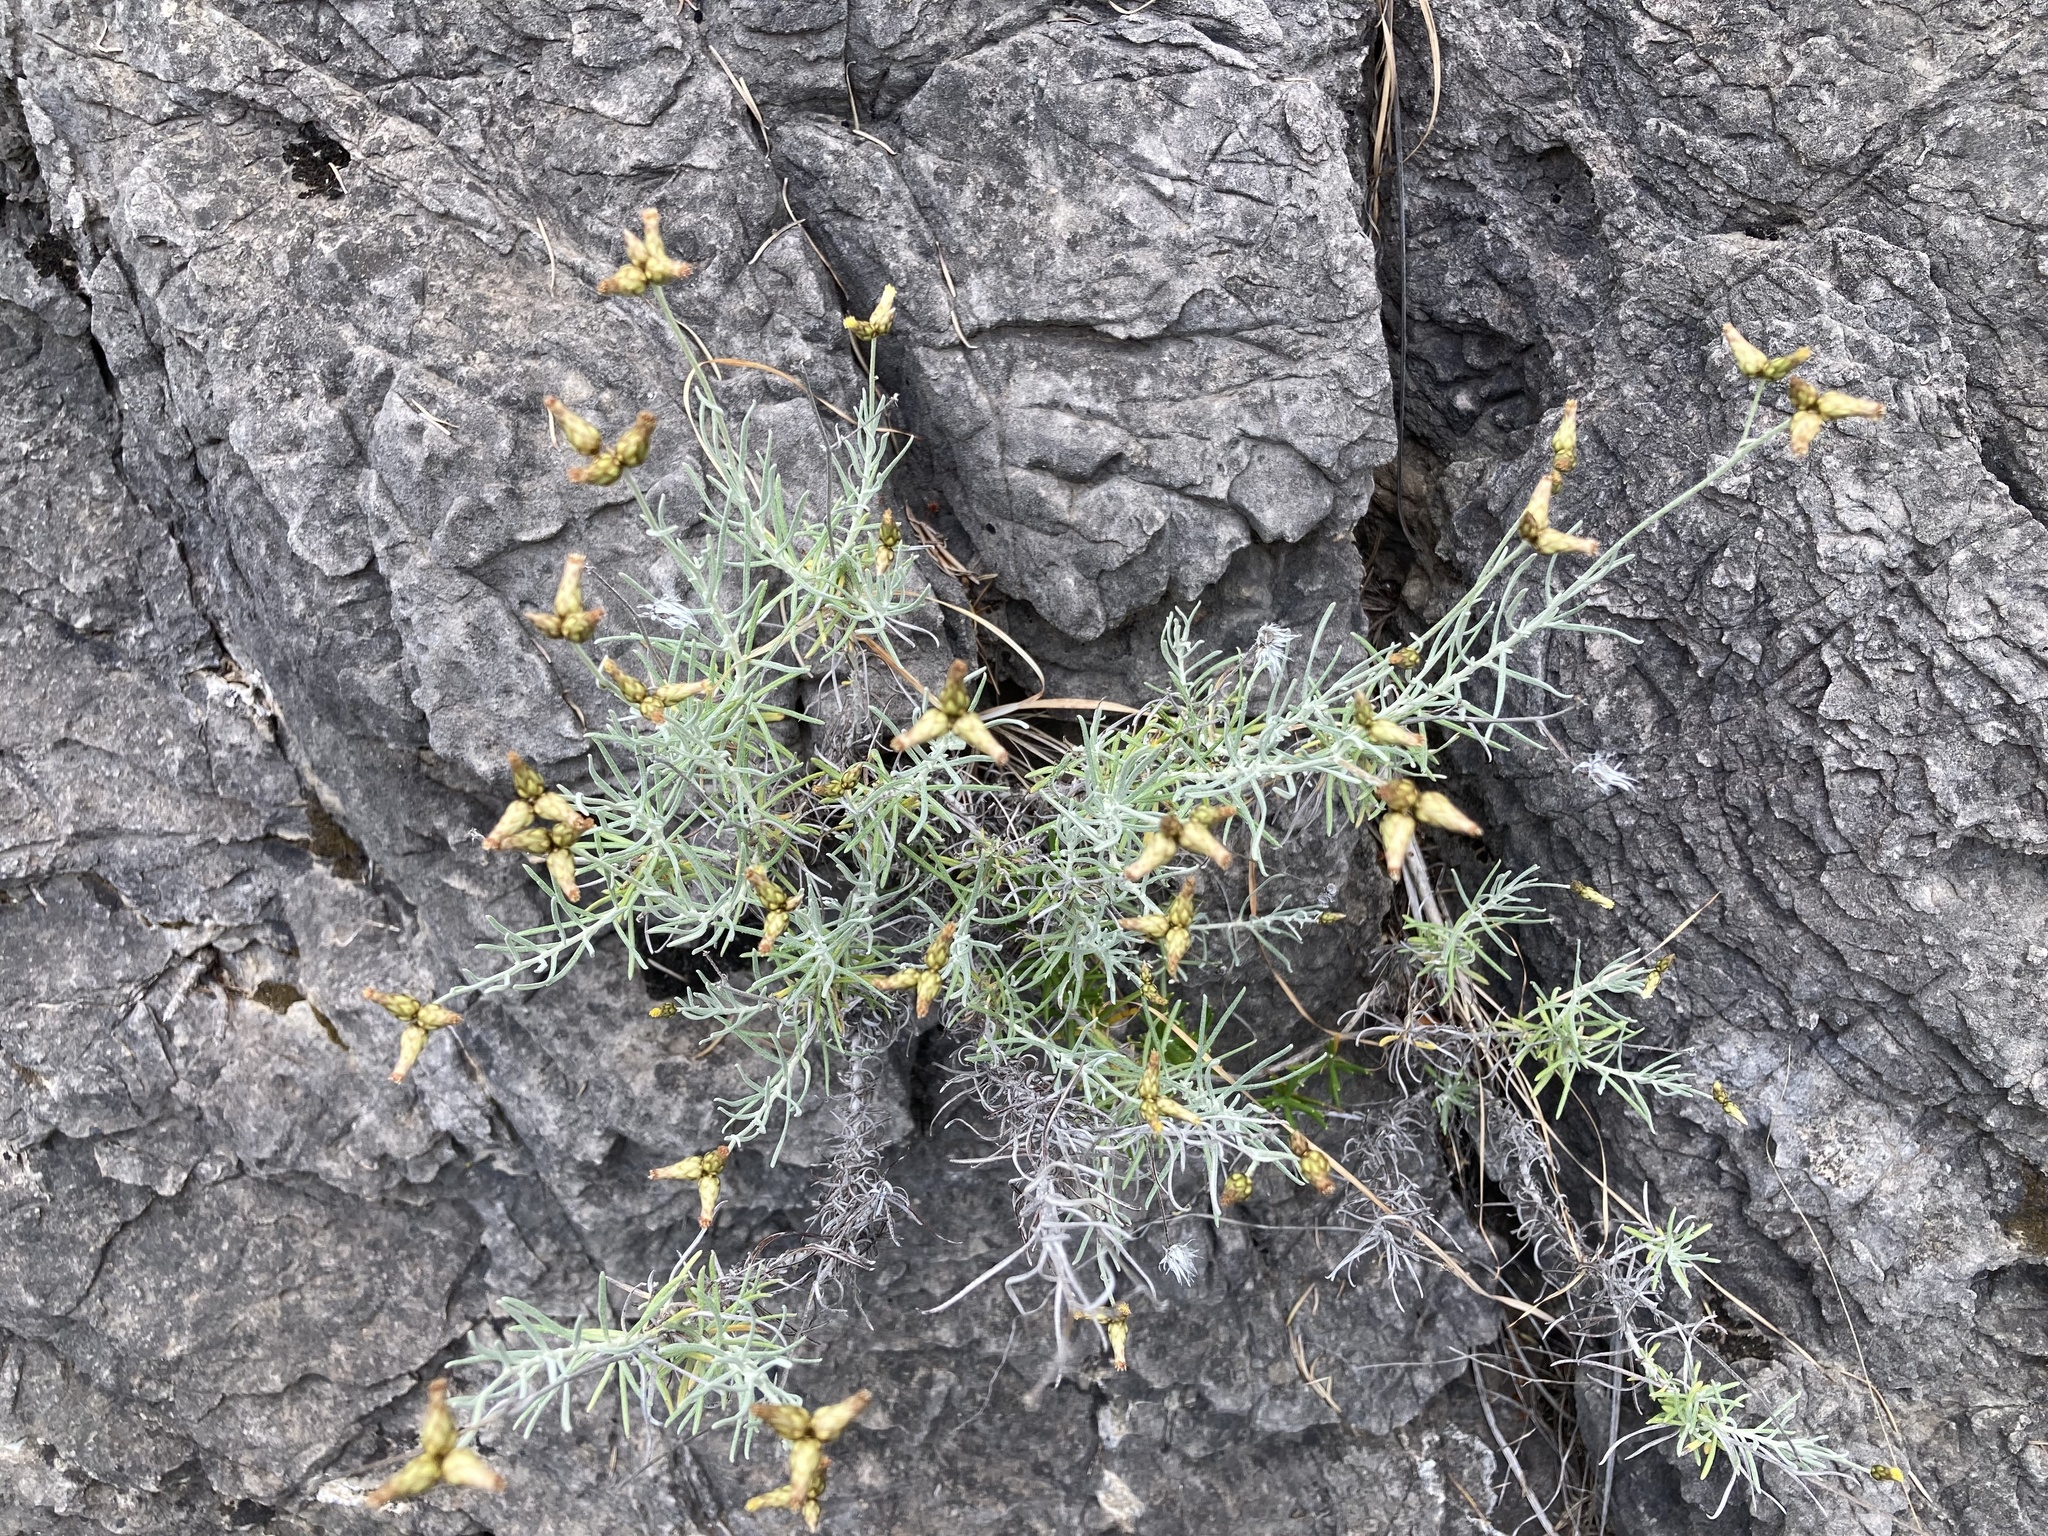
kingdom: Plantae
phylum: Tracheophyta
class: Magnoliopsida
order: Asterales
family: Asteraceae
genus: Phagnalon
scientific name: Phagnalon sordidum
